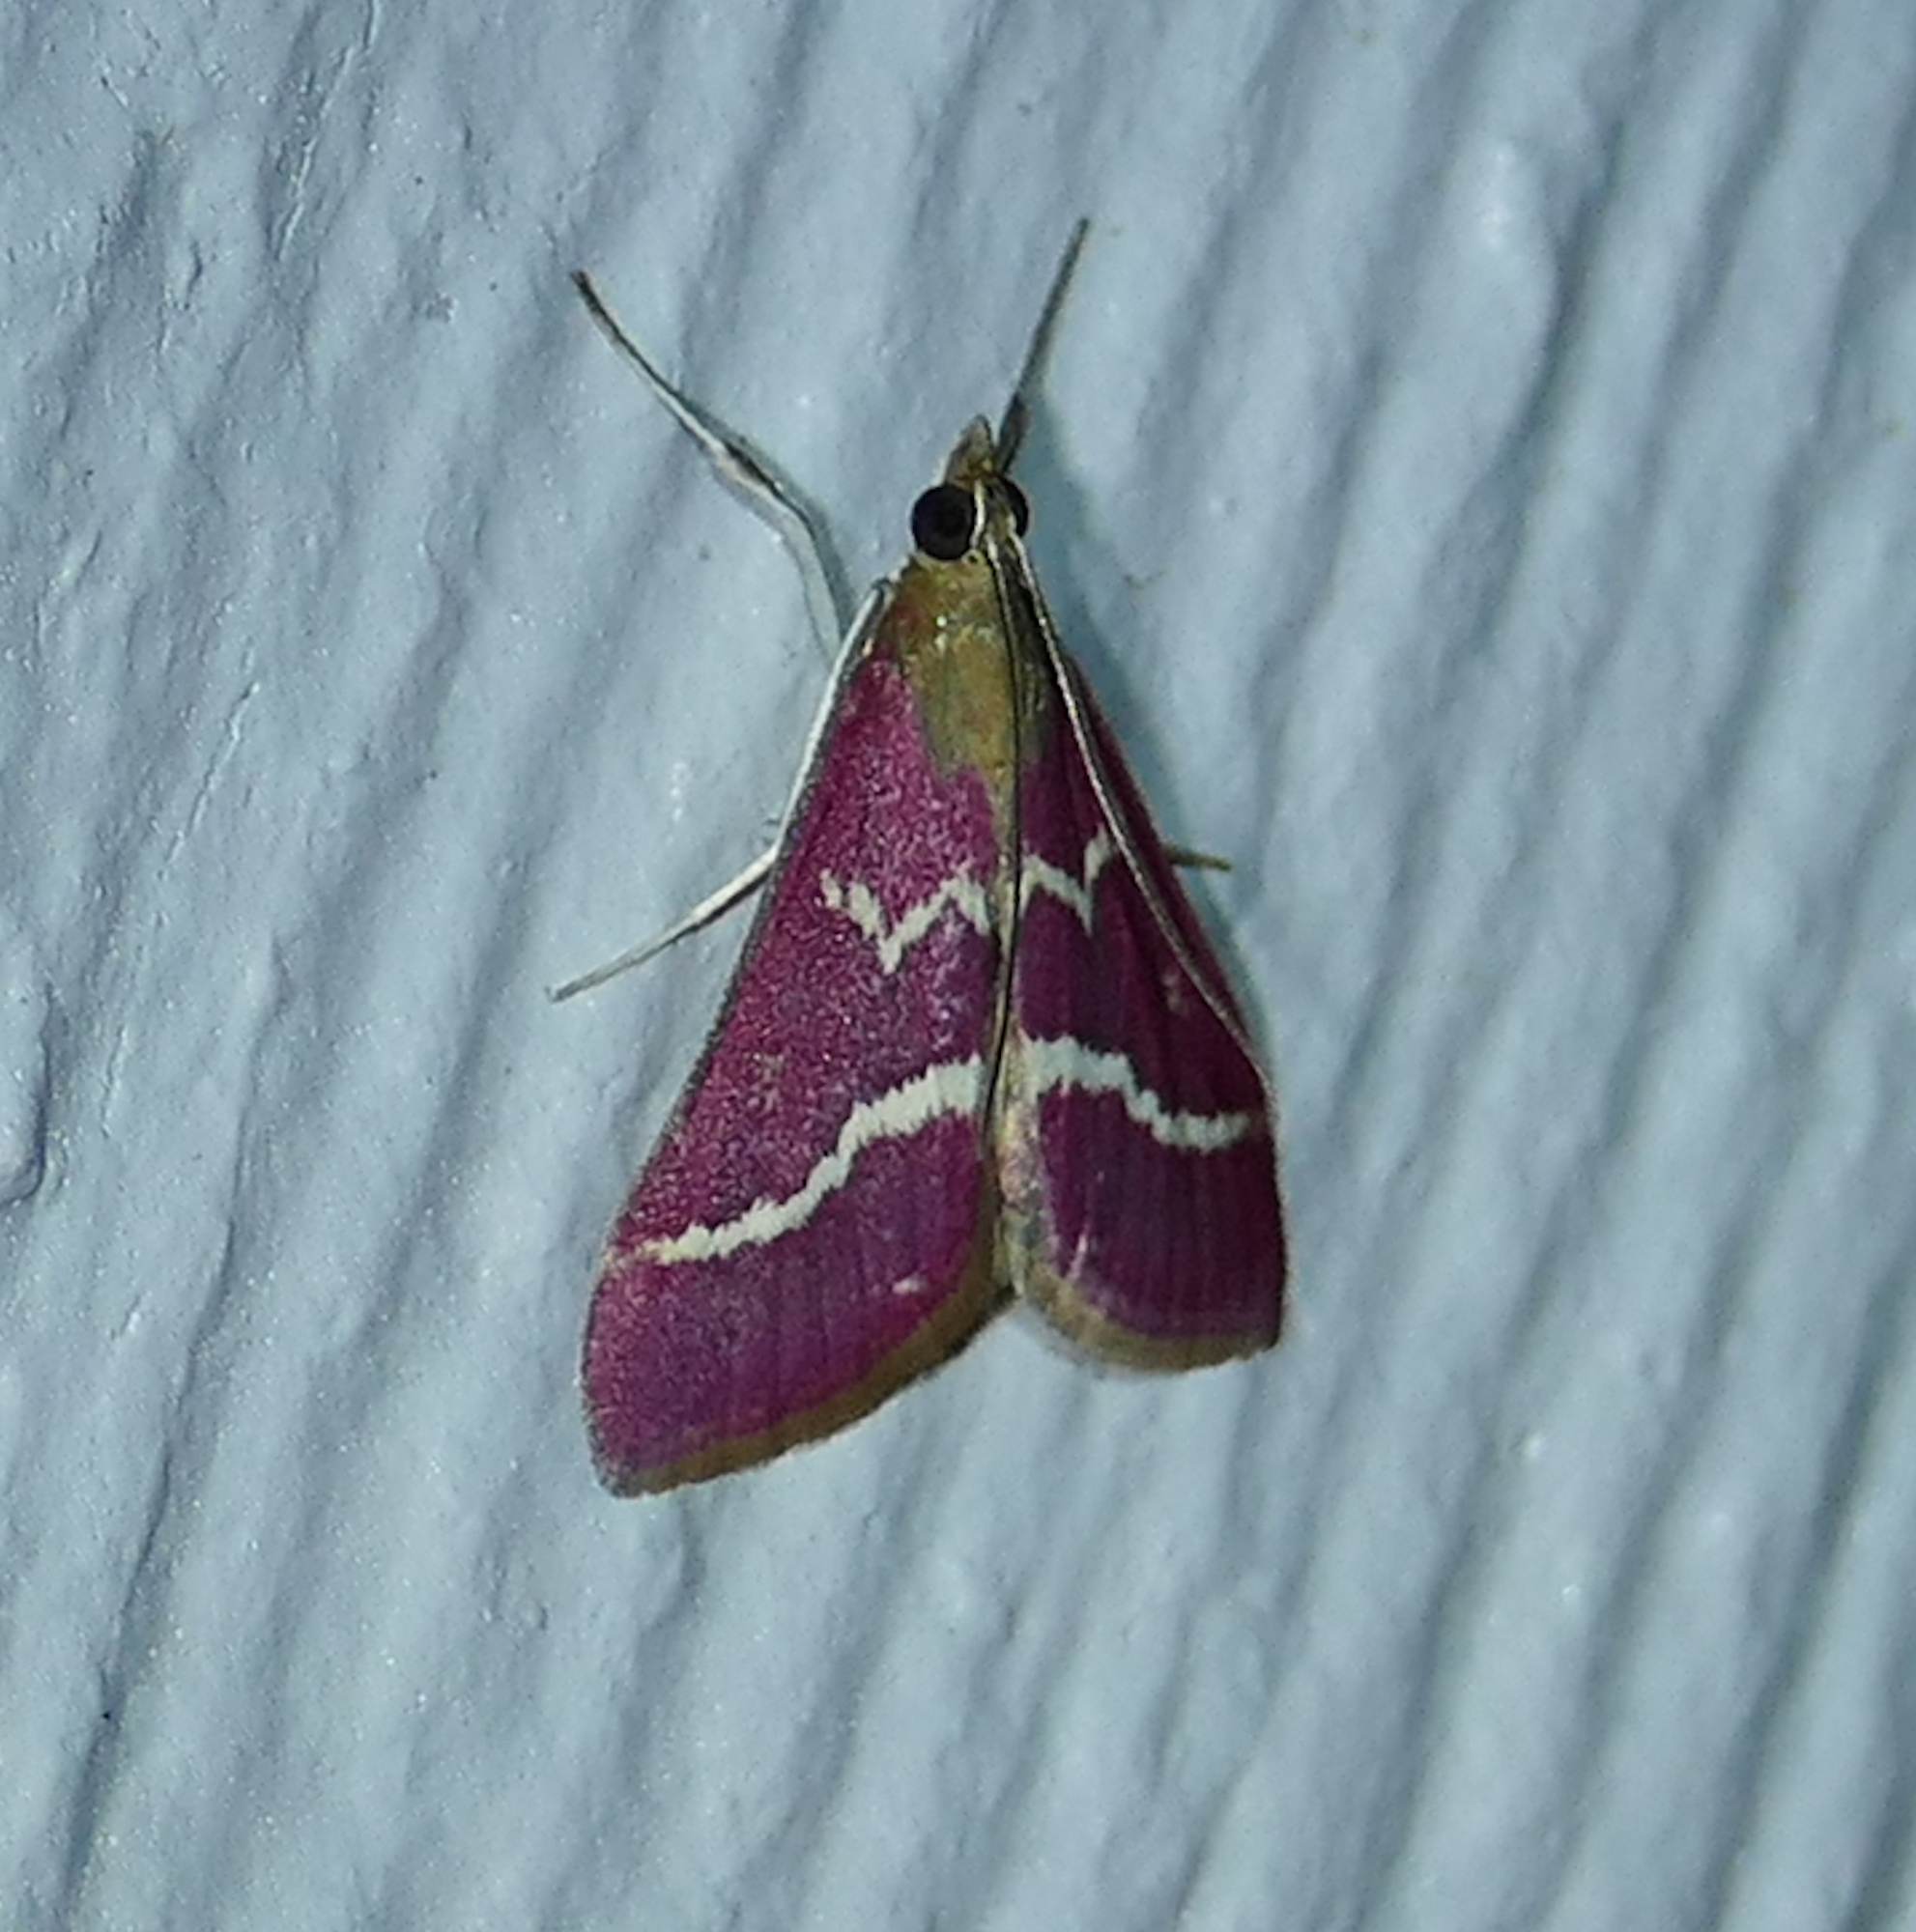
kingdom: Animalia
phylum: Arthropoda
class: Insecta
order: Lepidoptera
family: Crambidae
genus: Pyrausta
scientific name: Pyrausta volupialis
